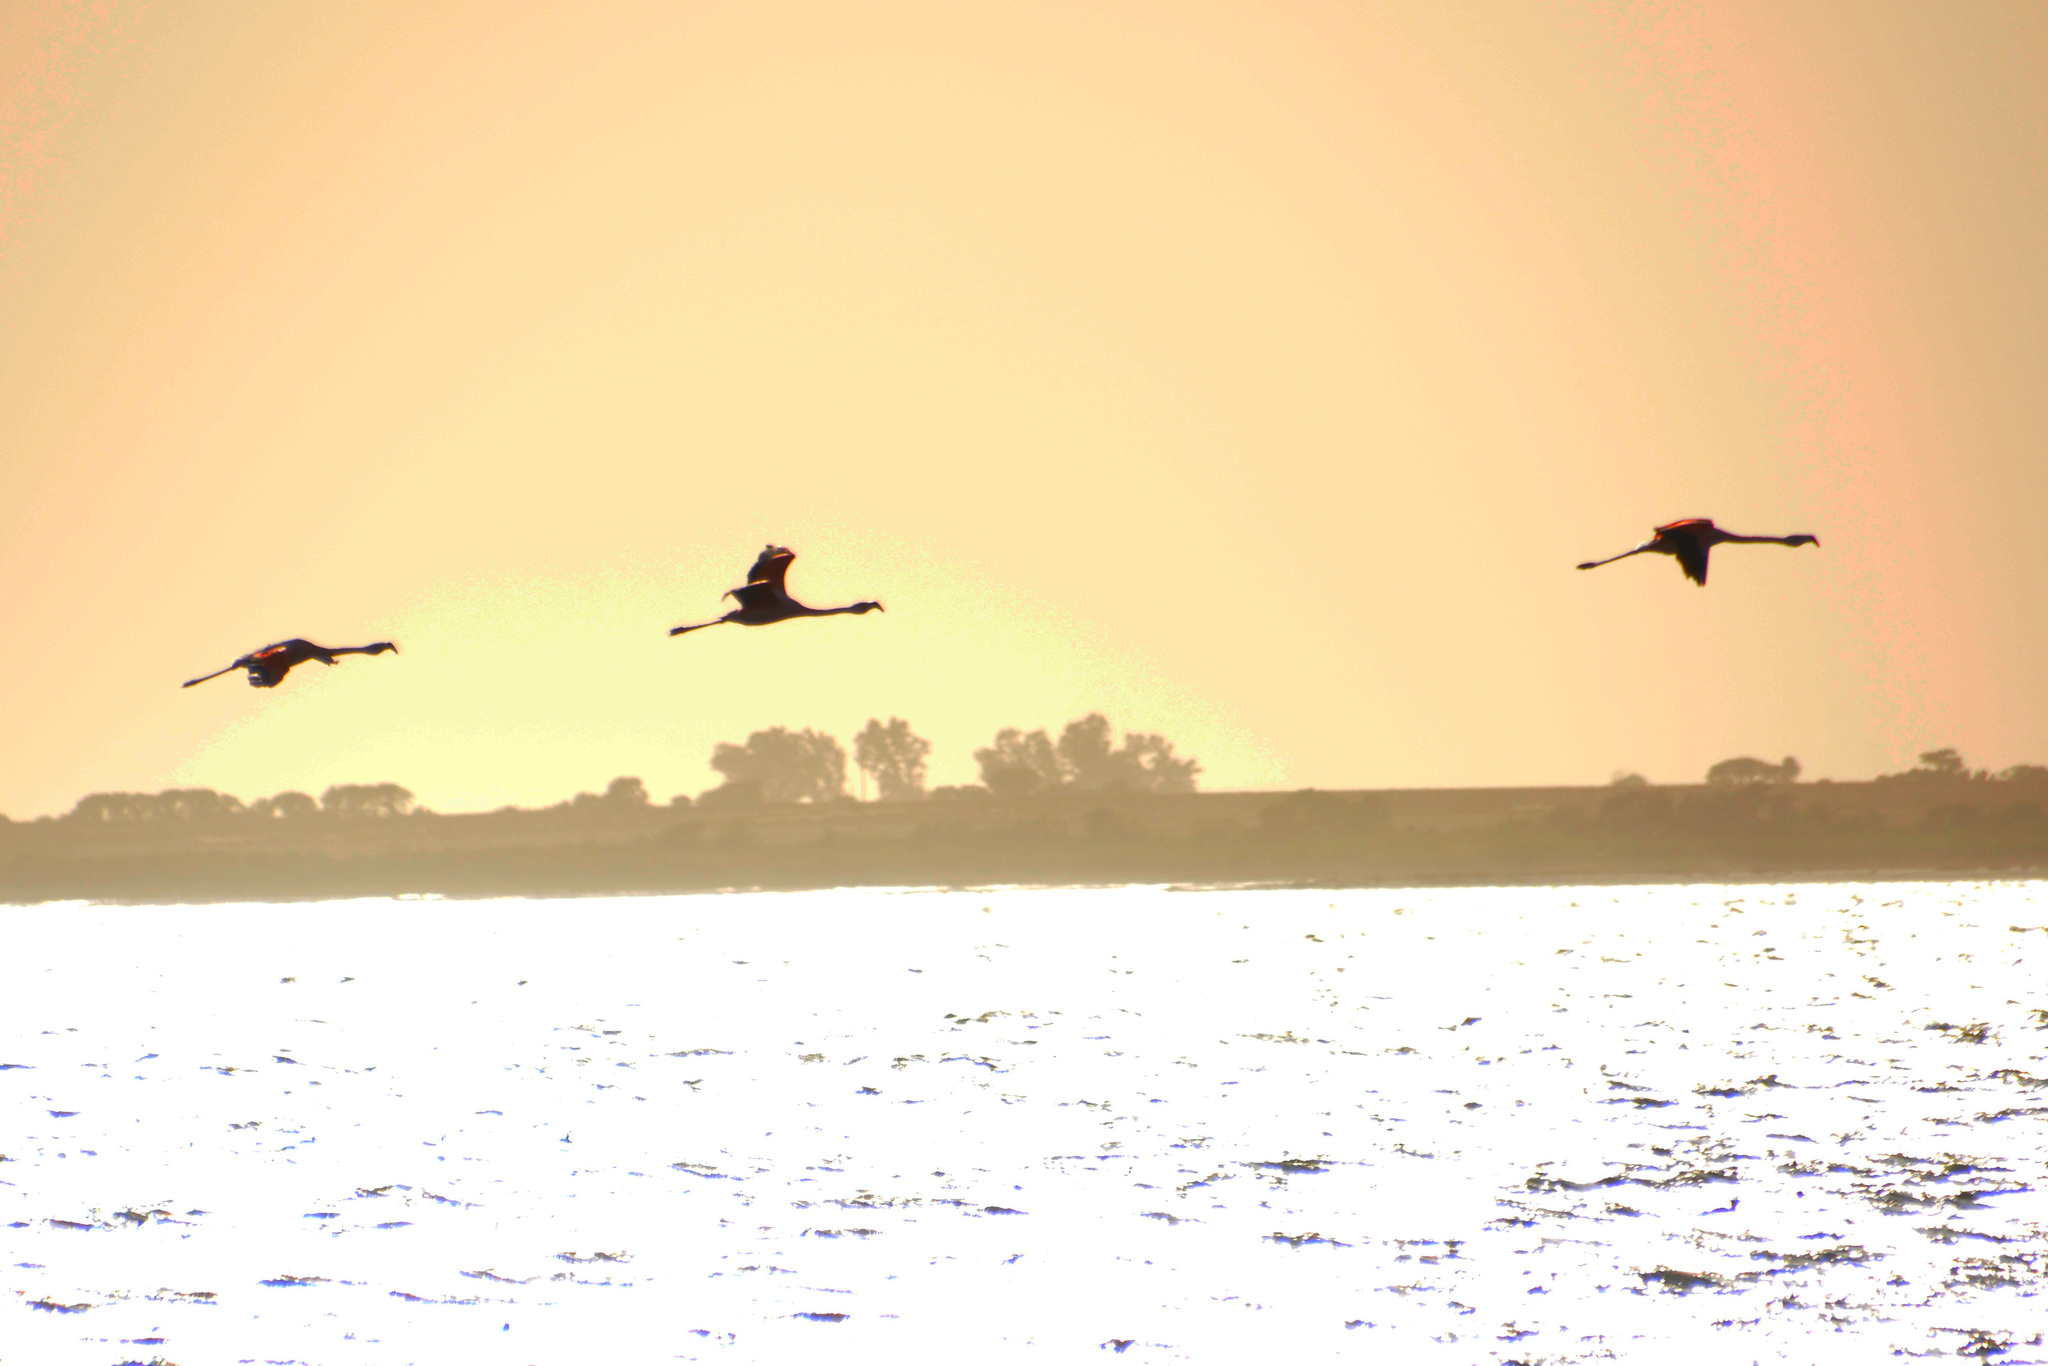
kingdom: Animalia
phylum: Chordata
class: Aves
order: Phoenicopteriformes
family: Phoenicopteridae
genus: Phoenicopterus
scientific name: Phoenicopterus chilensis
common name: Chilean flamingo
